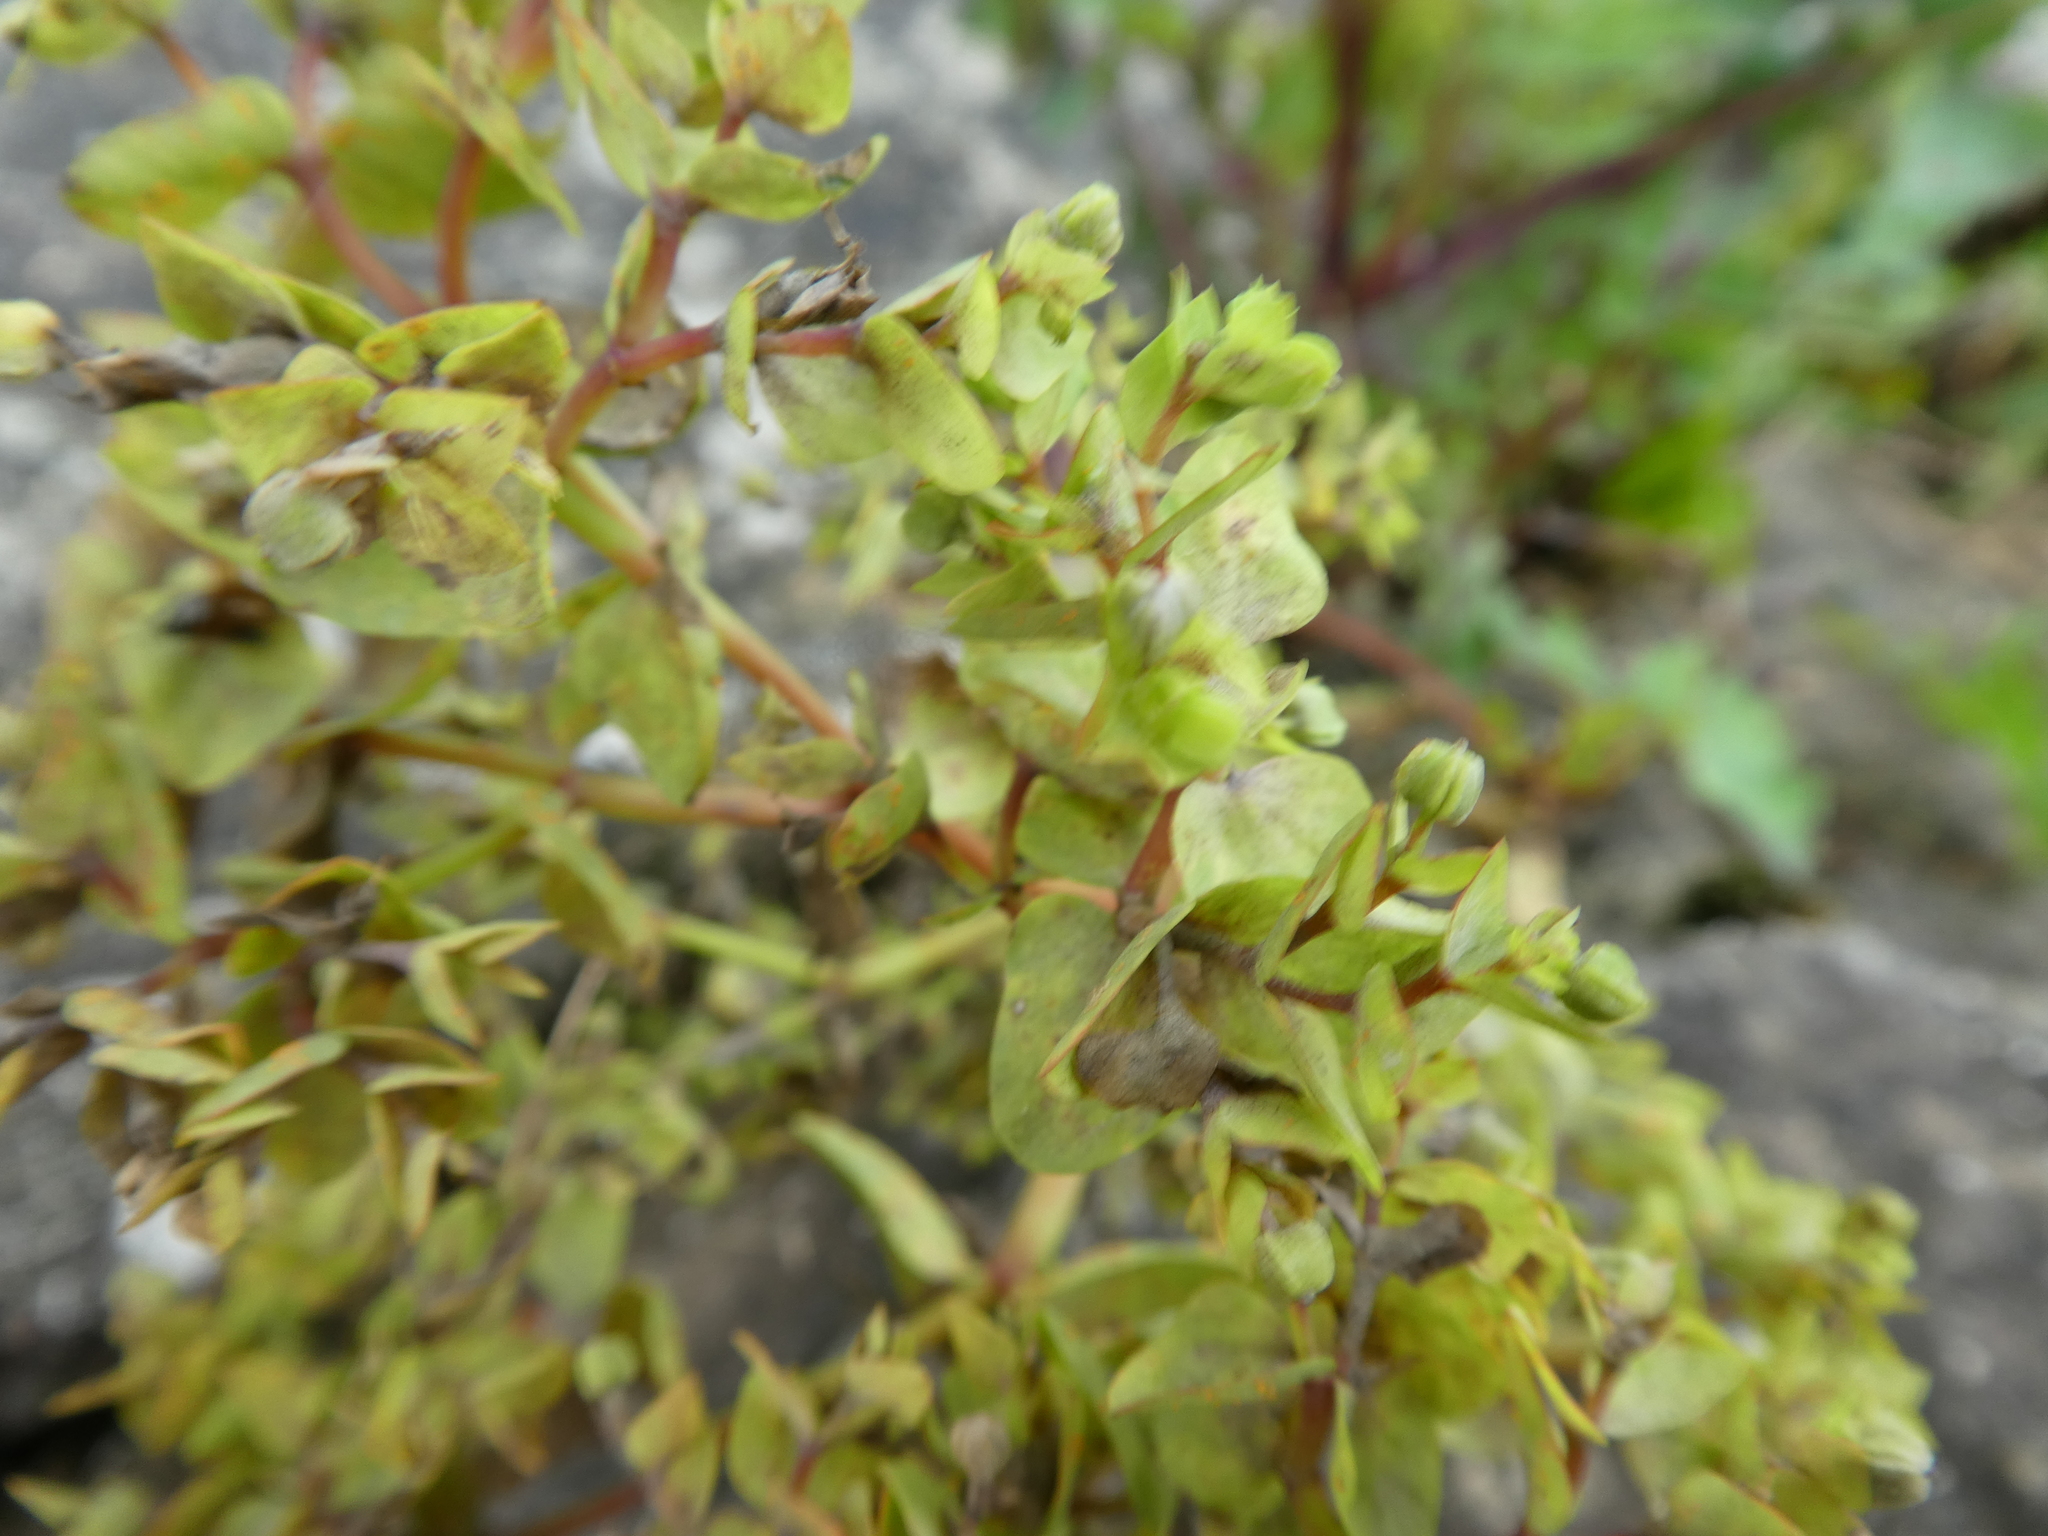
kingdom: Plantae
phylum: Tracheophyta
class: Magnoliopsida
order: Malpighiales
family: Euphorbiaceae
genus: Euphorbia
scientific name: Euphorbia peplus
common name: Petty spurge
